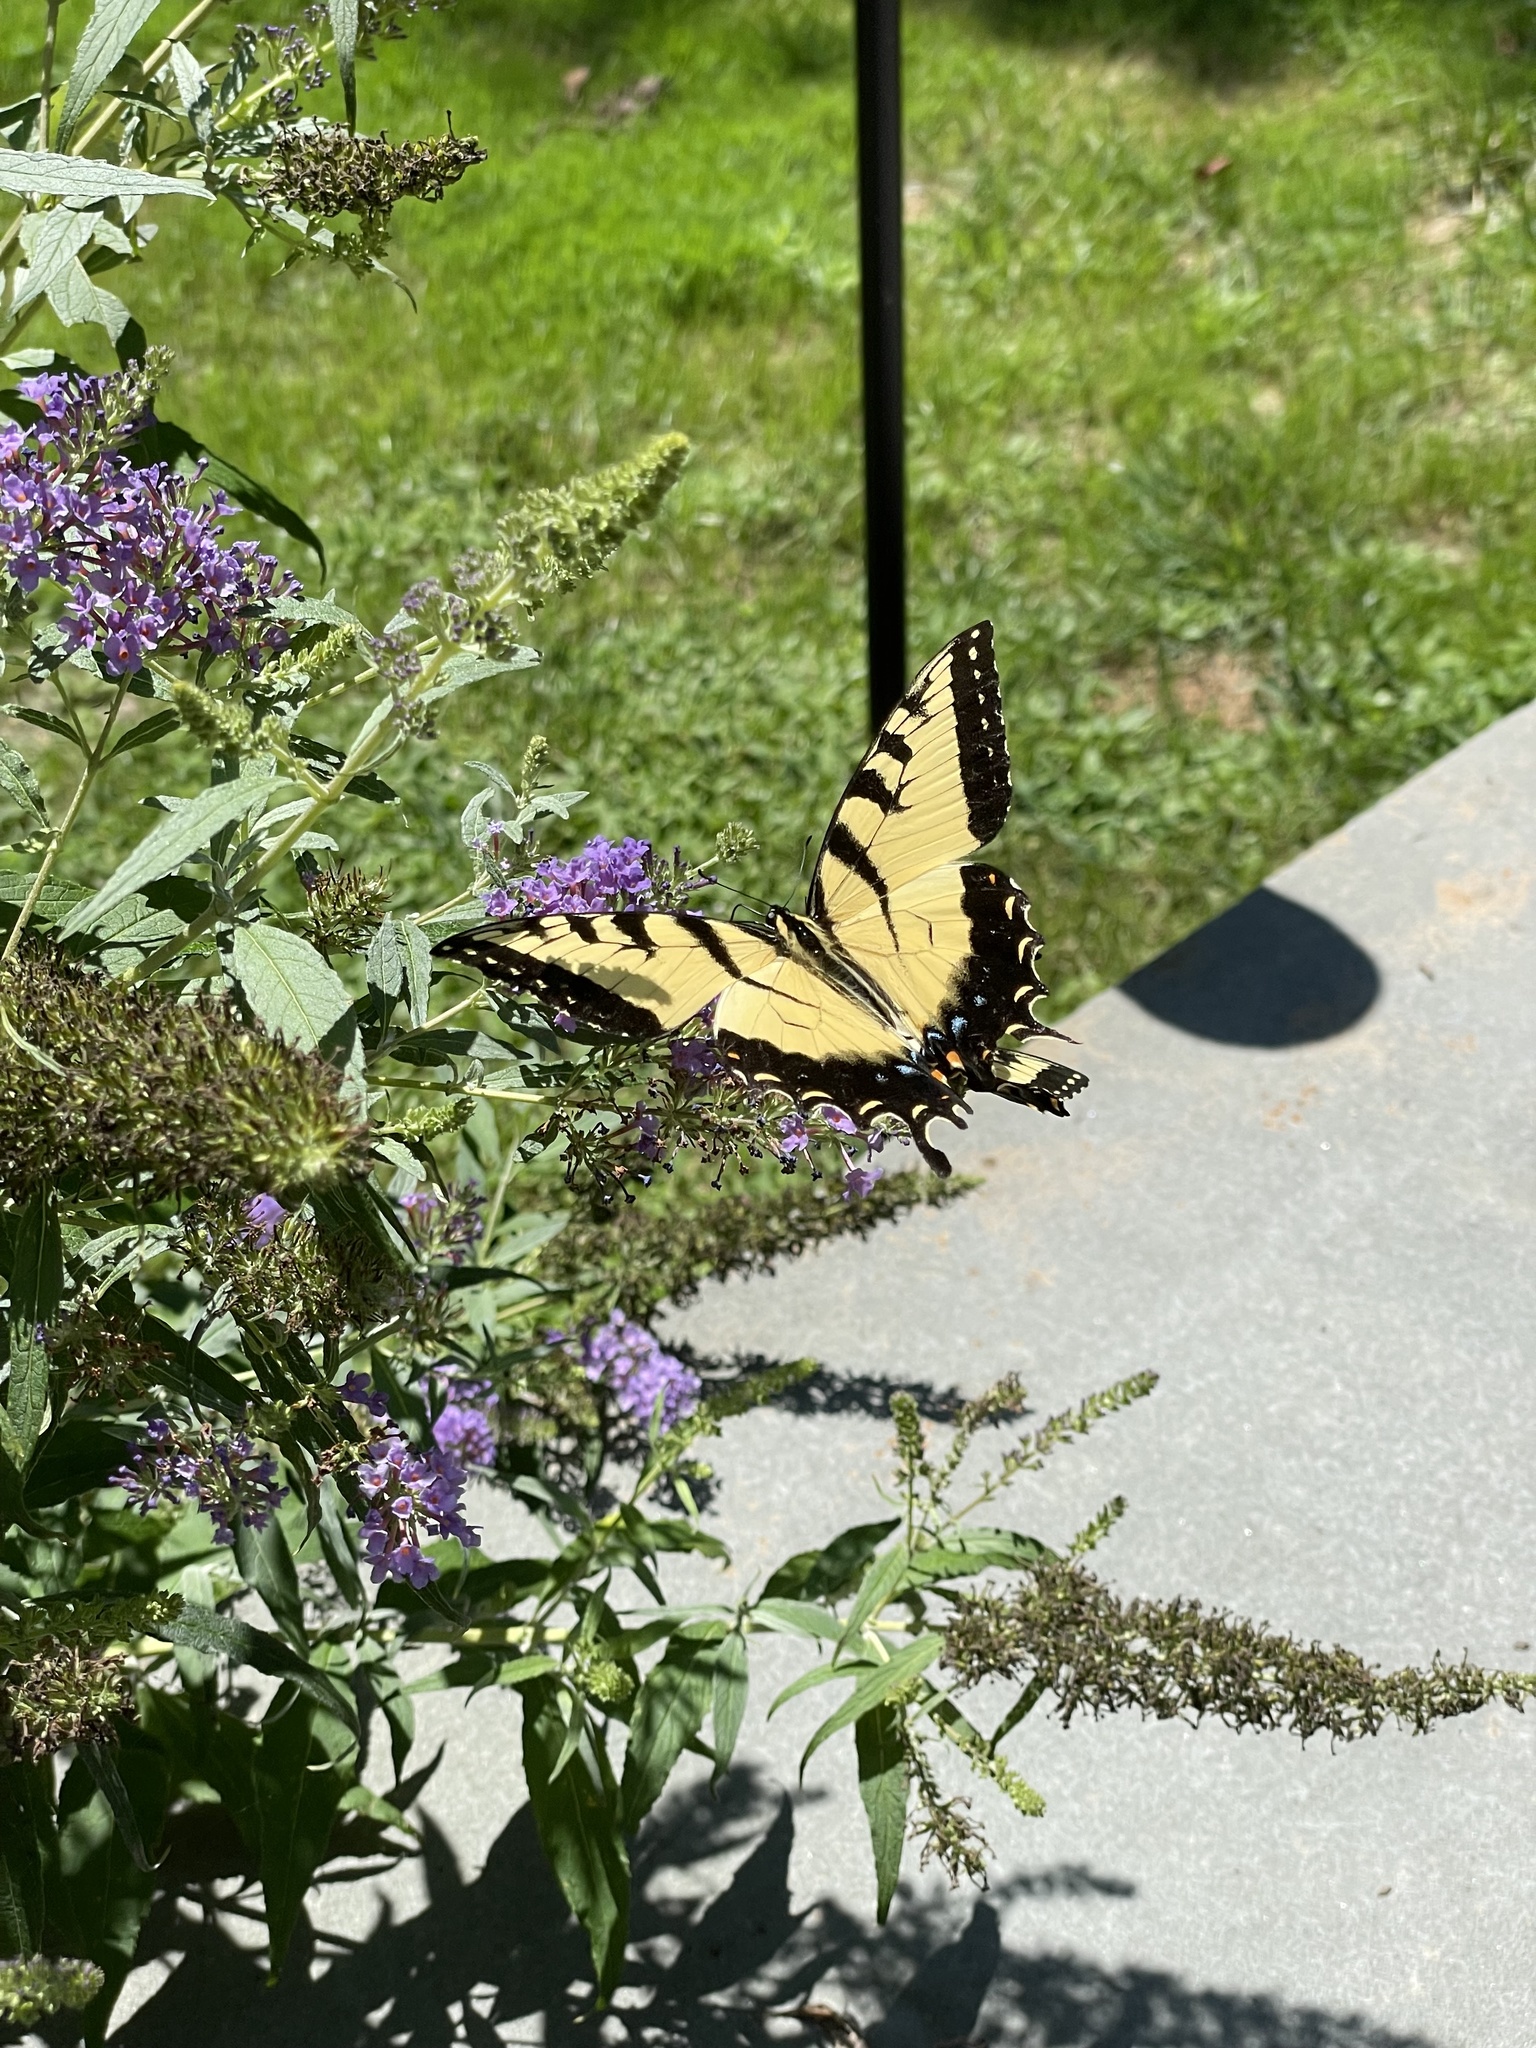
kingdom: Animalia
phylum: Arthropoda
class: Insecta
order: Lepidoptera
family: Papilionidae
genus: Papilio
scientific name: Papilio glaucus
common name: Tiger swallowtail
